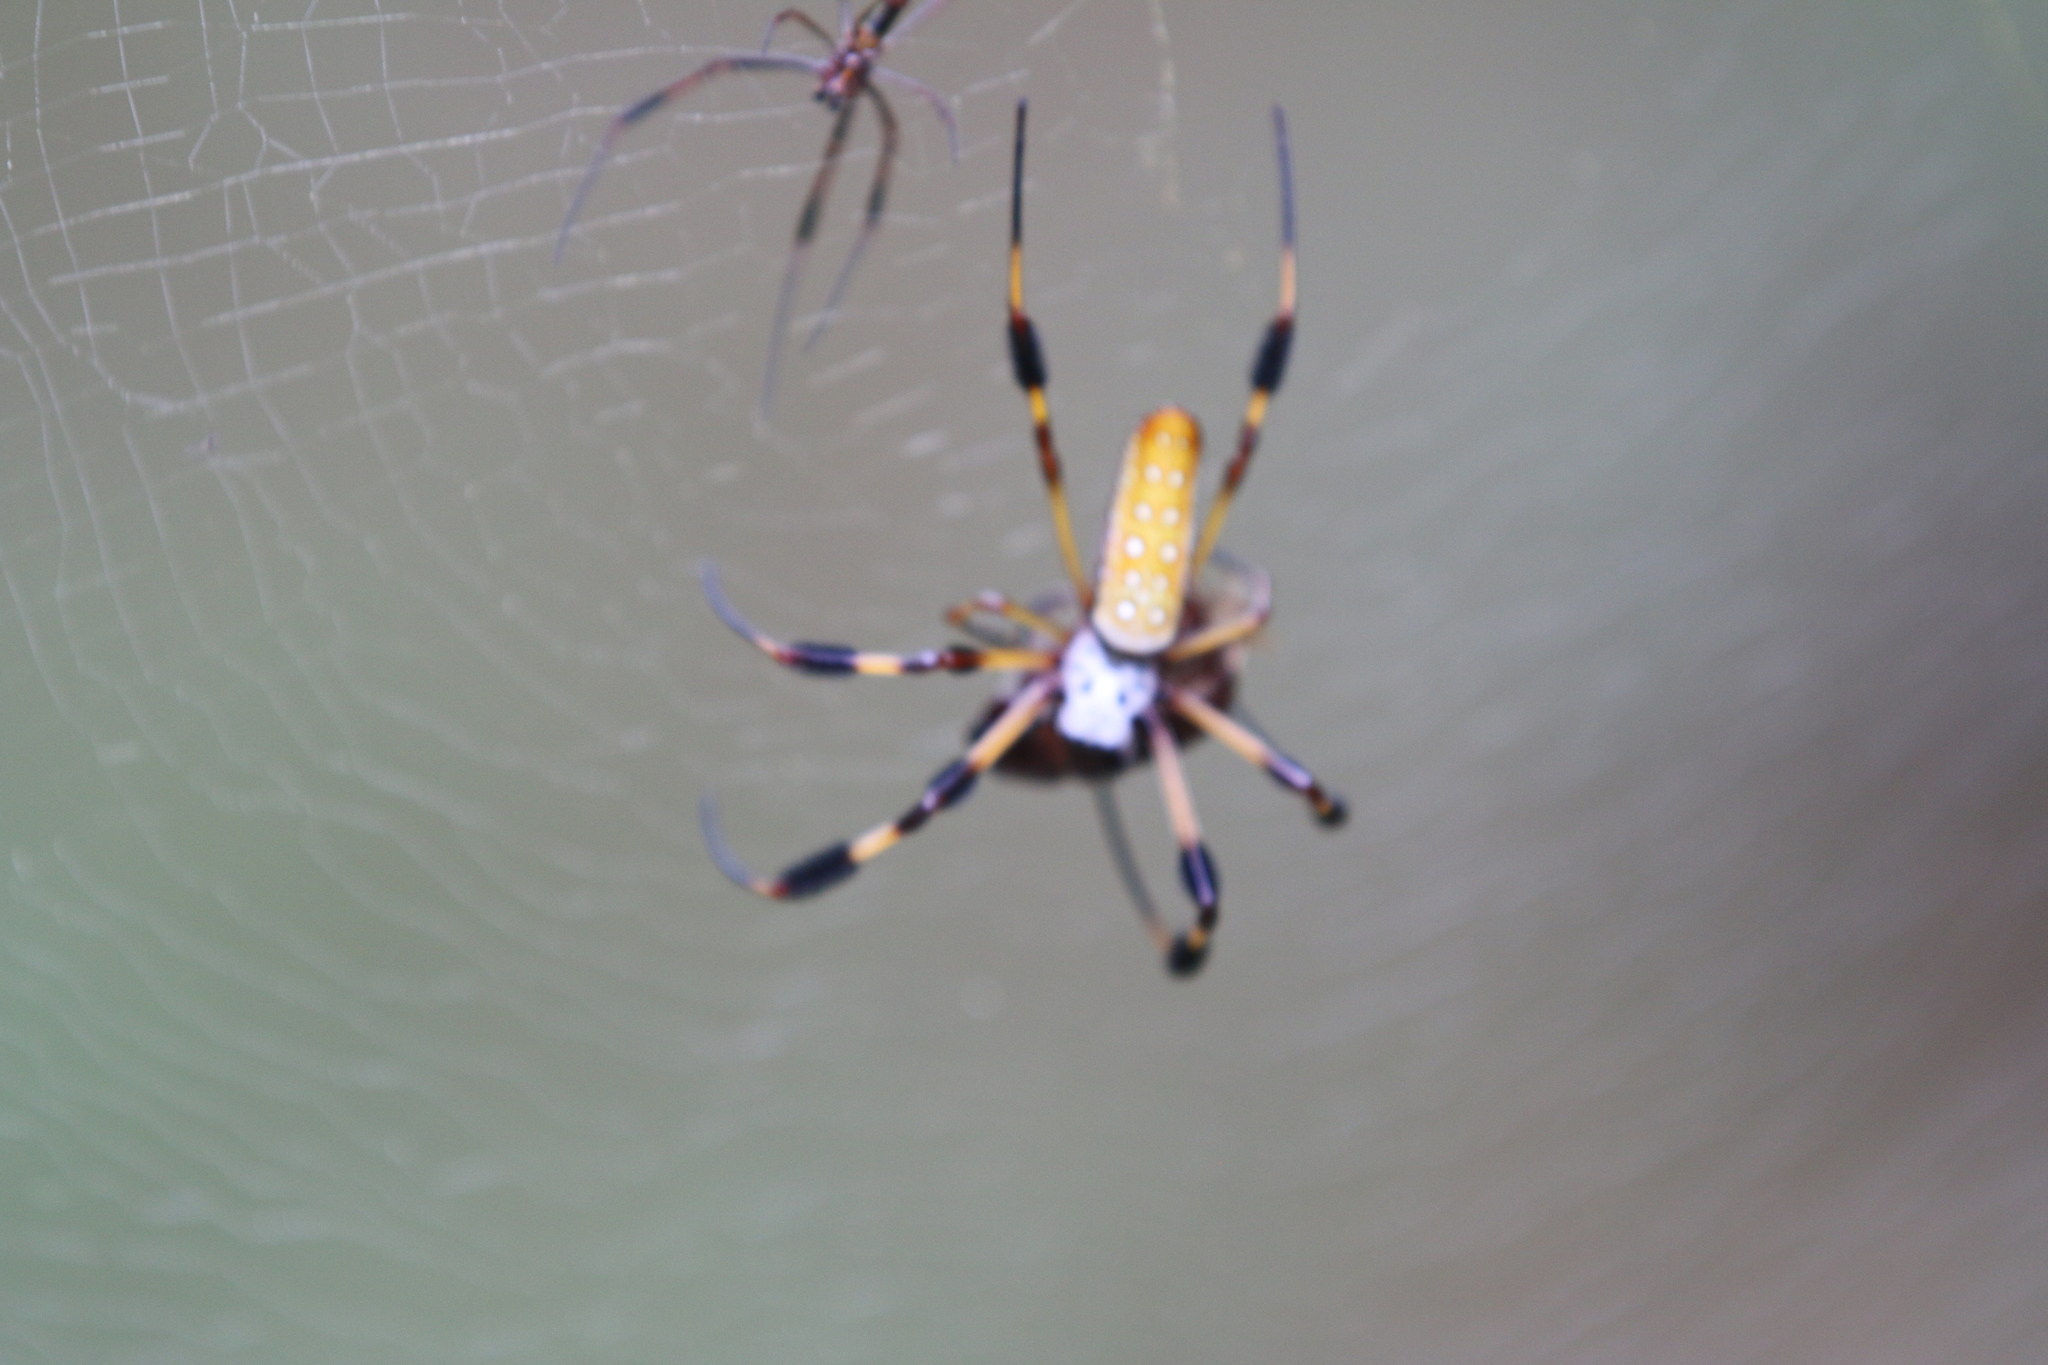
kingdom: Animalia
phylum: Arthropoda
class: Arachnida
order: Araneae
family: Araneidae
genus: Trichonephila
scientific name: Trichonephila clavipes
